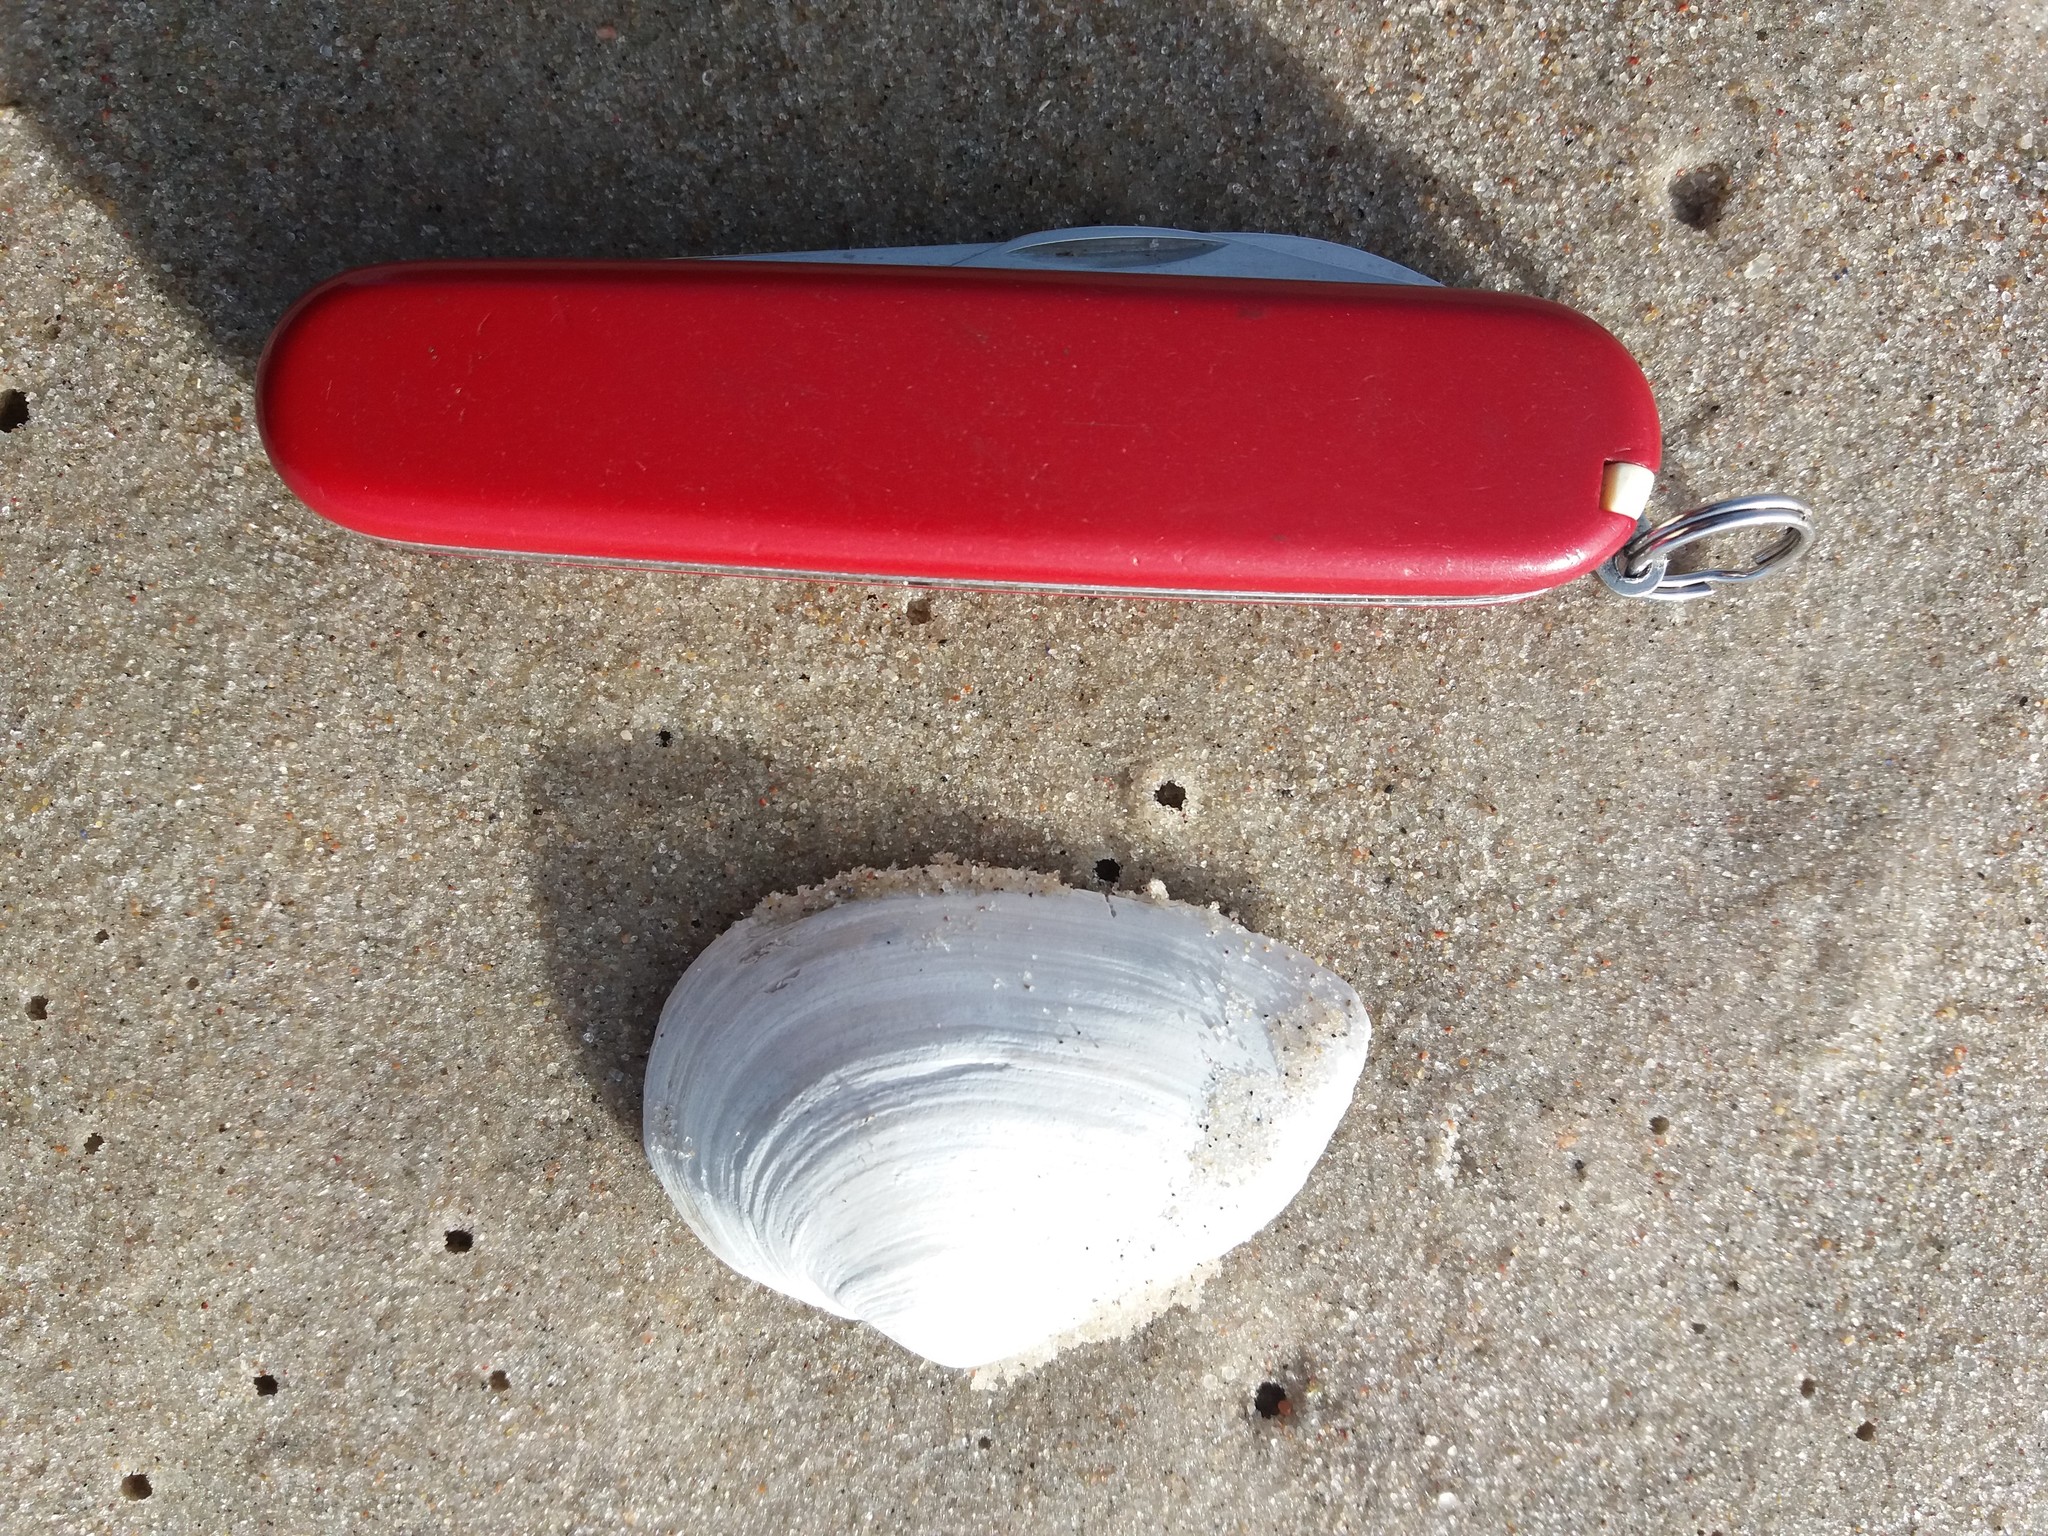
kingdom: Animalia
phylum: Mollusca
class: Bivalvia
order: Myida
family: Myidae
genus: Mya
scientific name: Mya arenaria
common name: Soft-shelled clam
